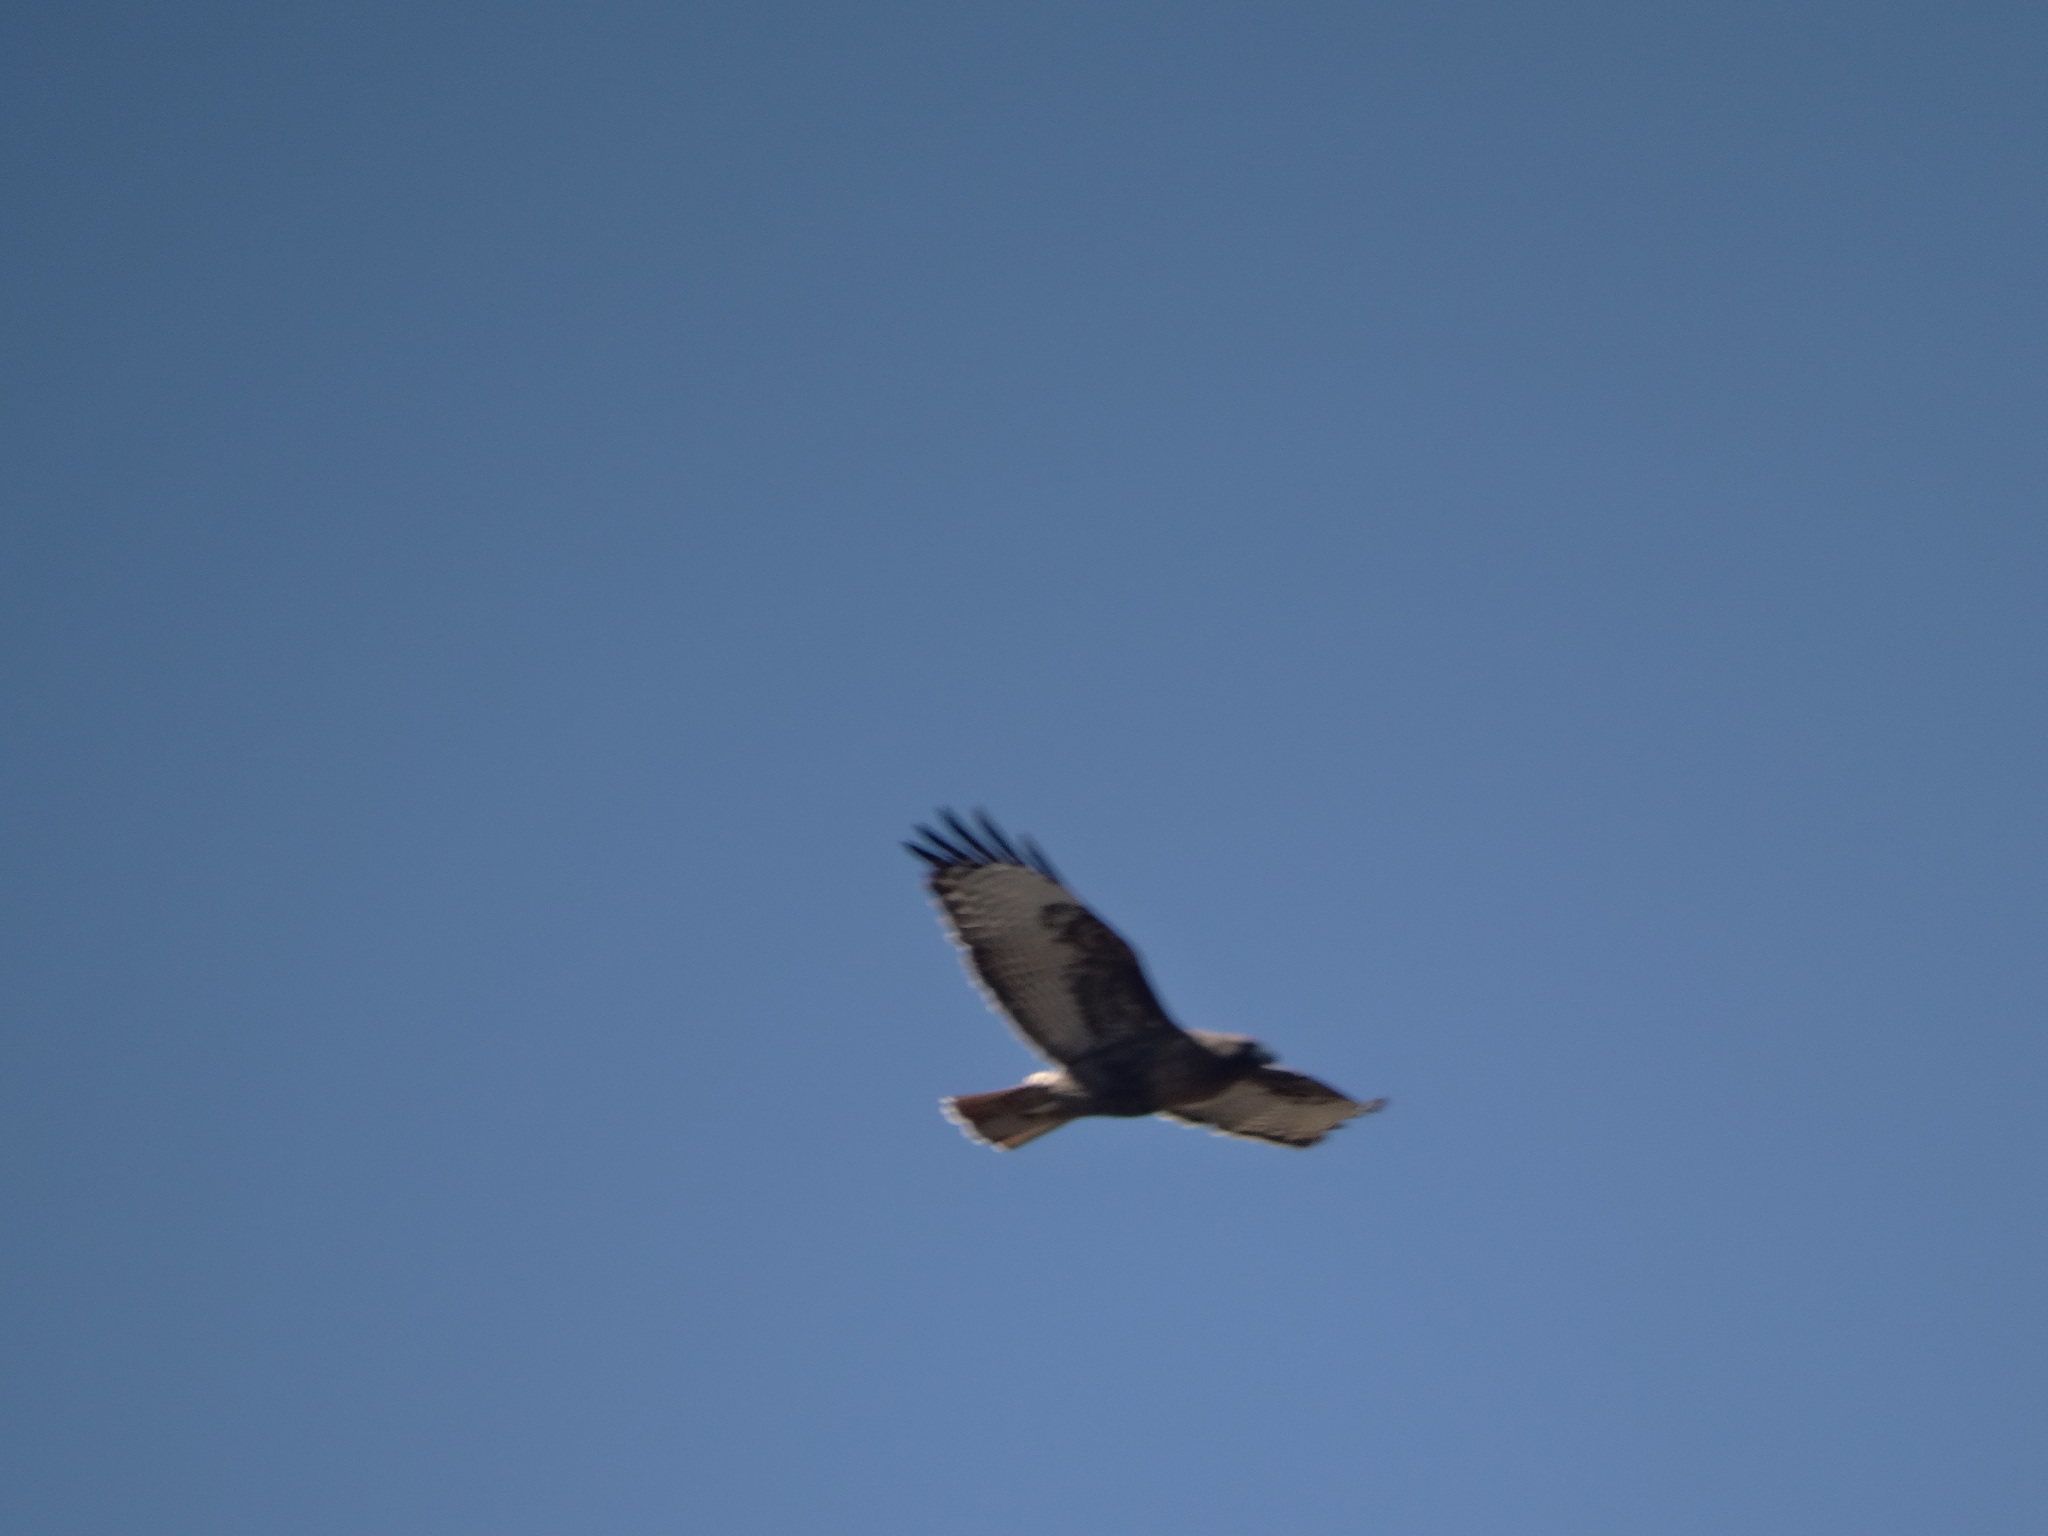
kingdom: Animalia
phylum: Chordata
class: Aves
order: Accipitriformes
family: Accipitridae
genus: Buteo
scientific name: Buteo jamaicensis
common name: Red-tailed hawk
